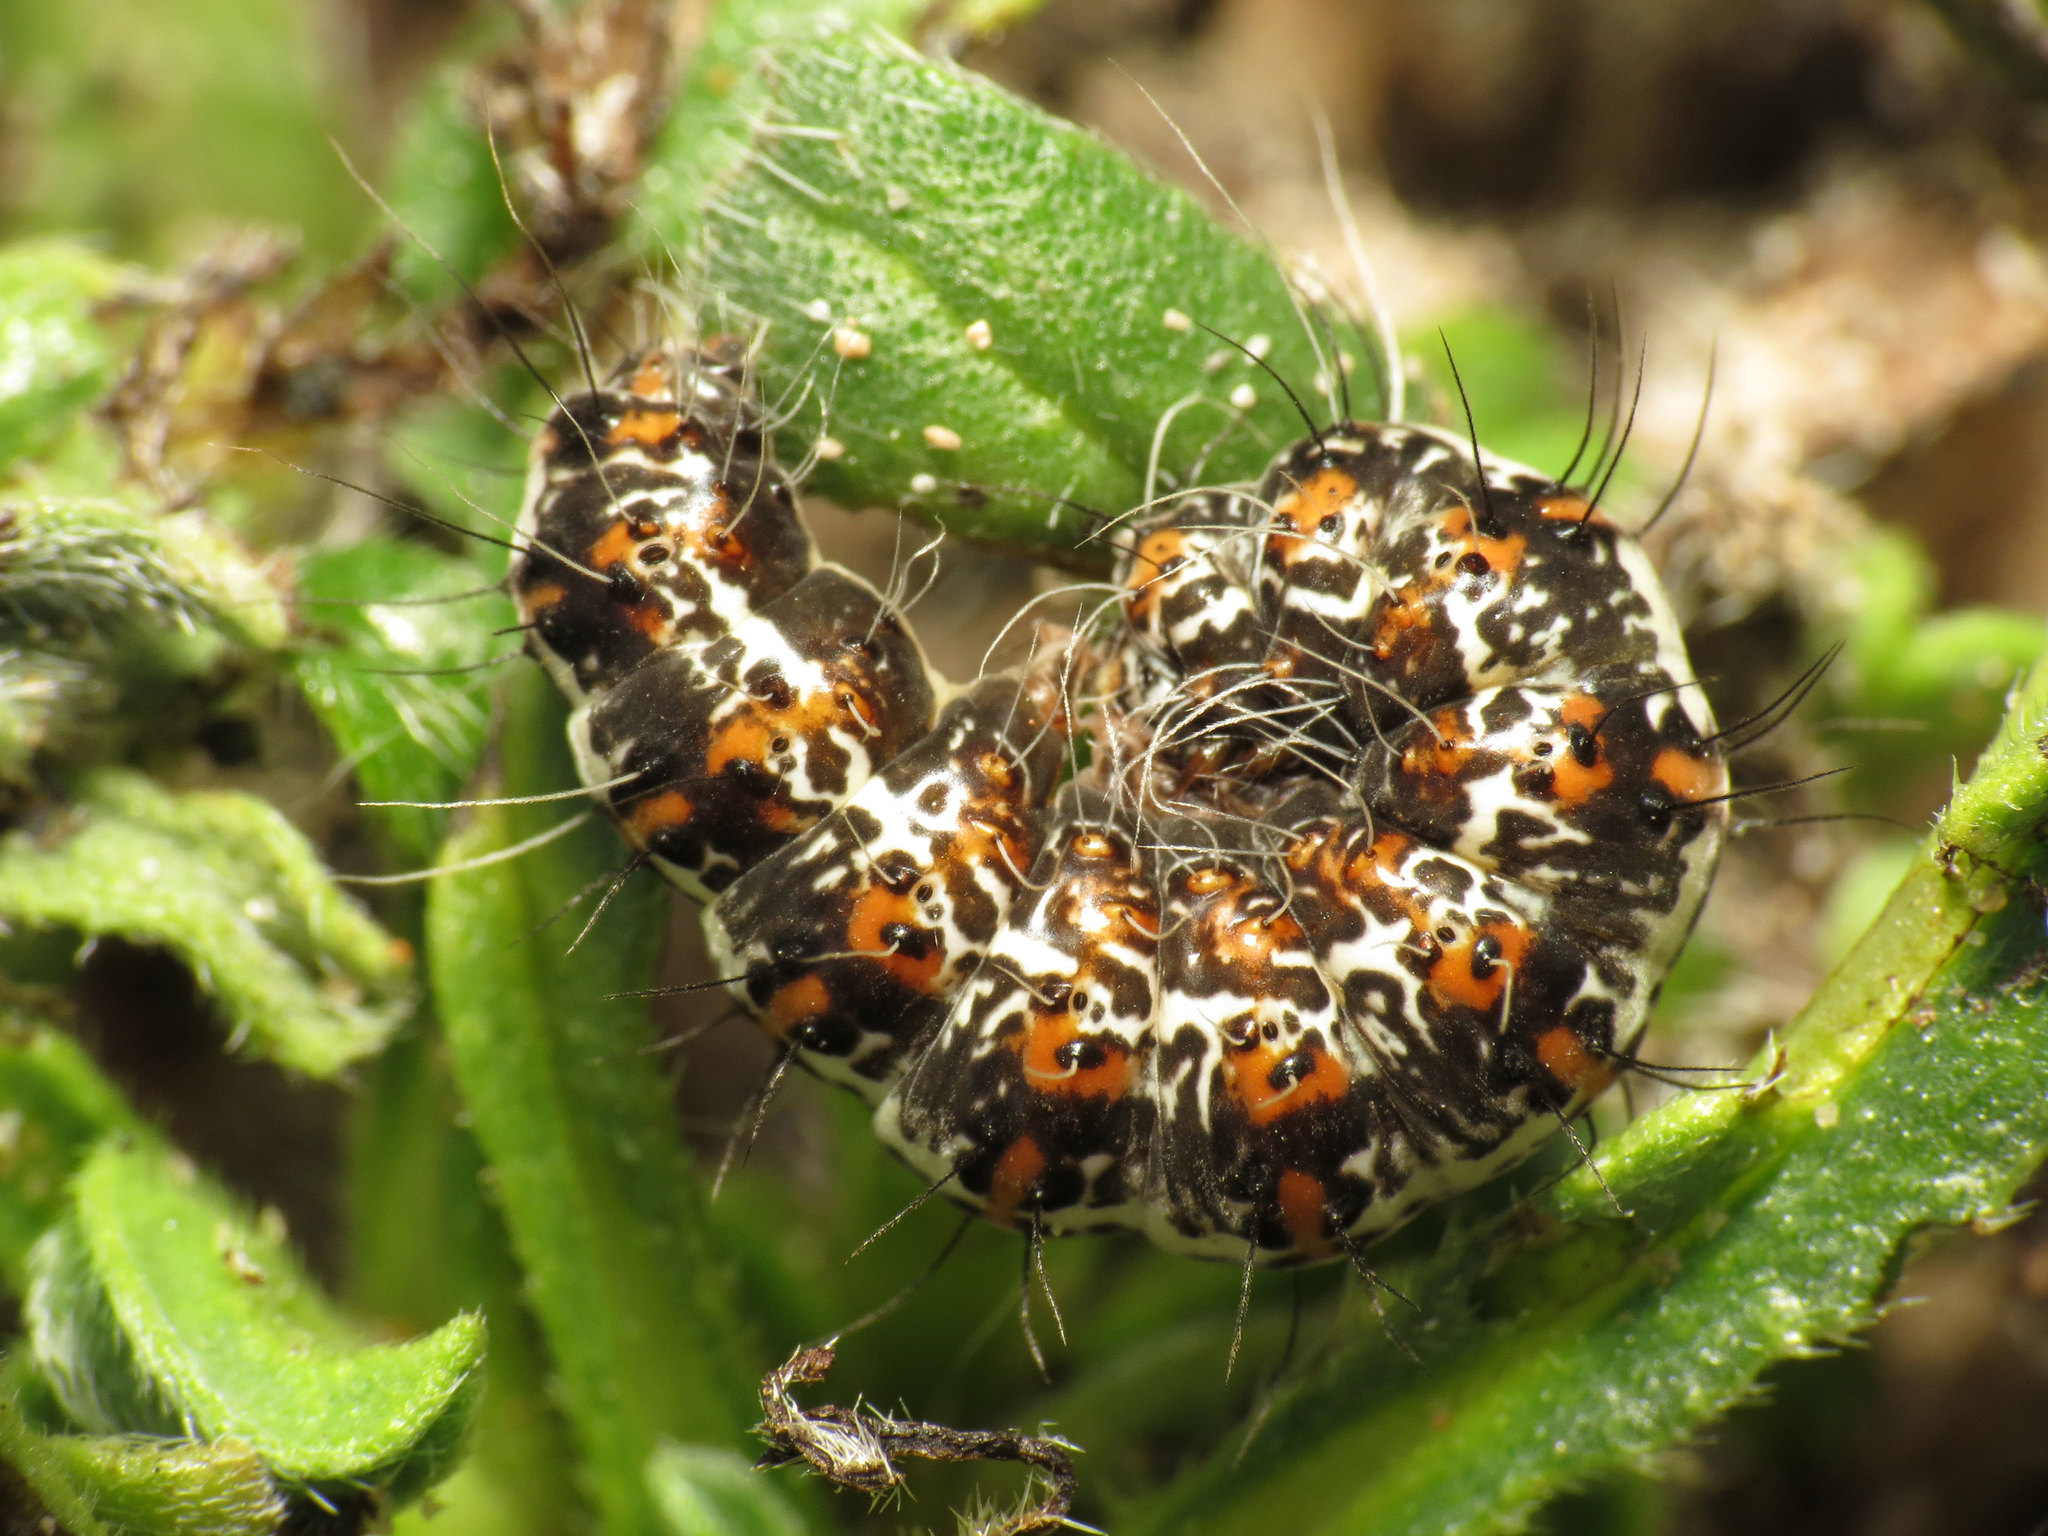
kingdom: Animalia
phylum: Arthropoda
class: Insecta
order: Lepidoptera
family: Erebidae
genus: Utetheisa
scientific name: Utetheisa pulchella
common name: Crimson speckled
